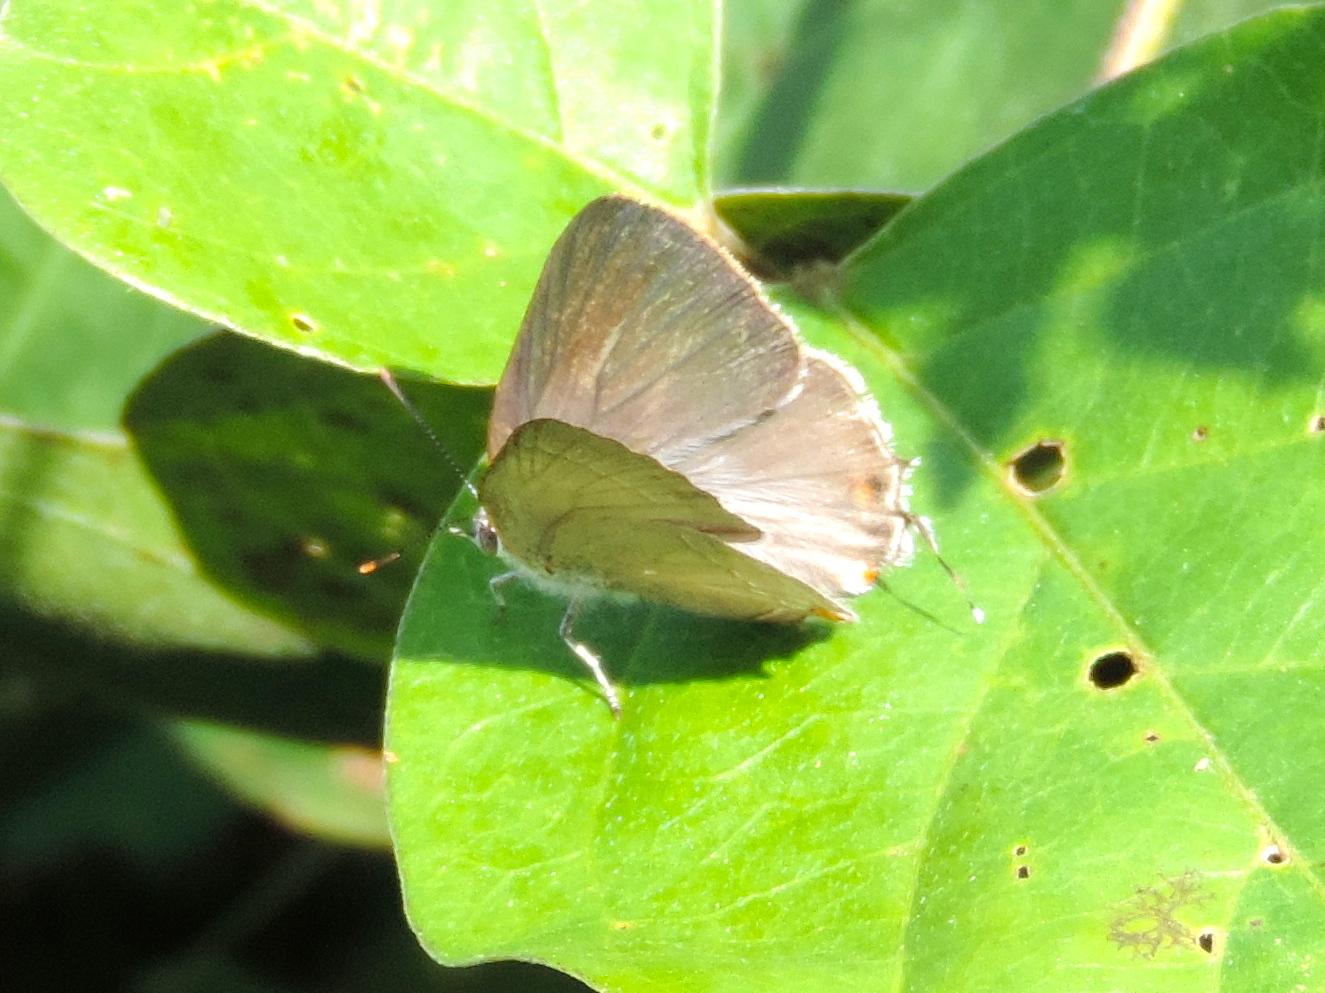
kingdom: Animalia
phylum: Arthropoda
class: Insecta
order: Lepidoptera
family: Lycaenidae
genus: Thecla
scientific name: Thecla marius
